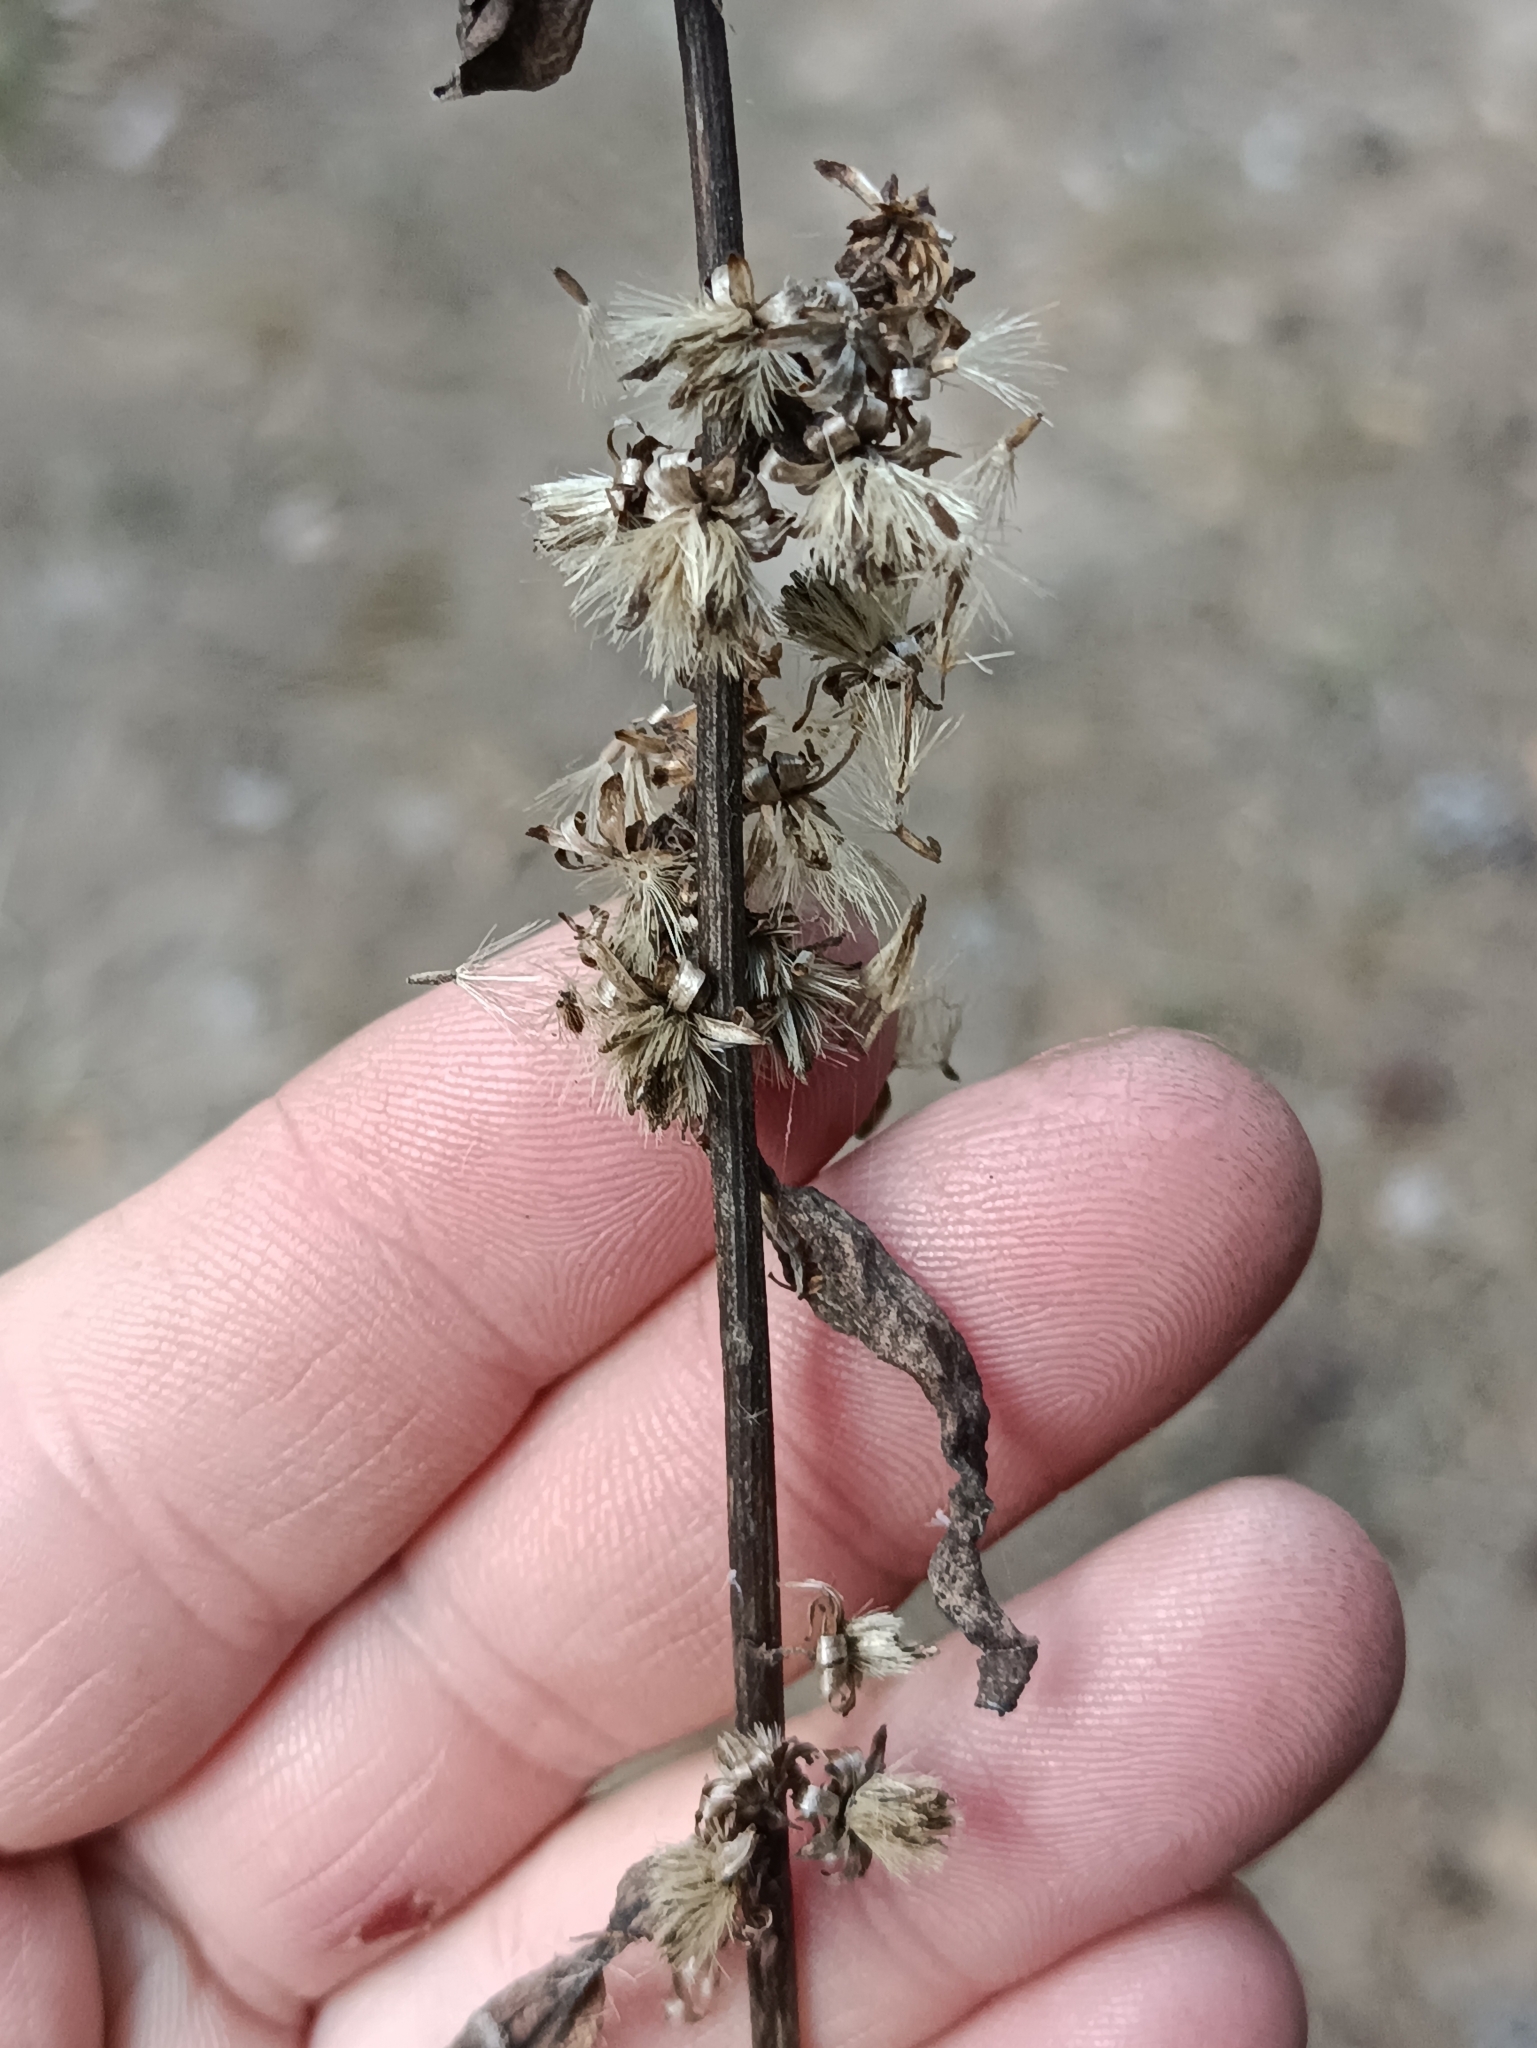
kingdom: Plantae
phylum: Tracheophyta
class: Magnoliopsida
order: Asterales
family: Asteraceae
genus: Solidago
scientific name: Solidago virgaurea
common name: Goldenrod
